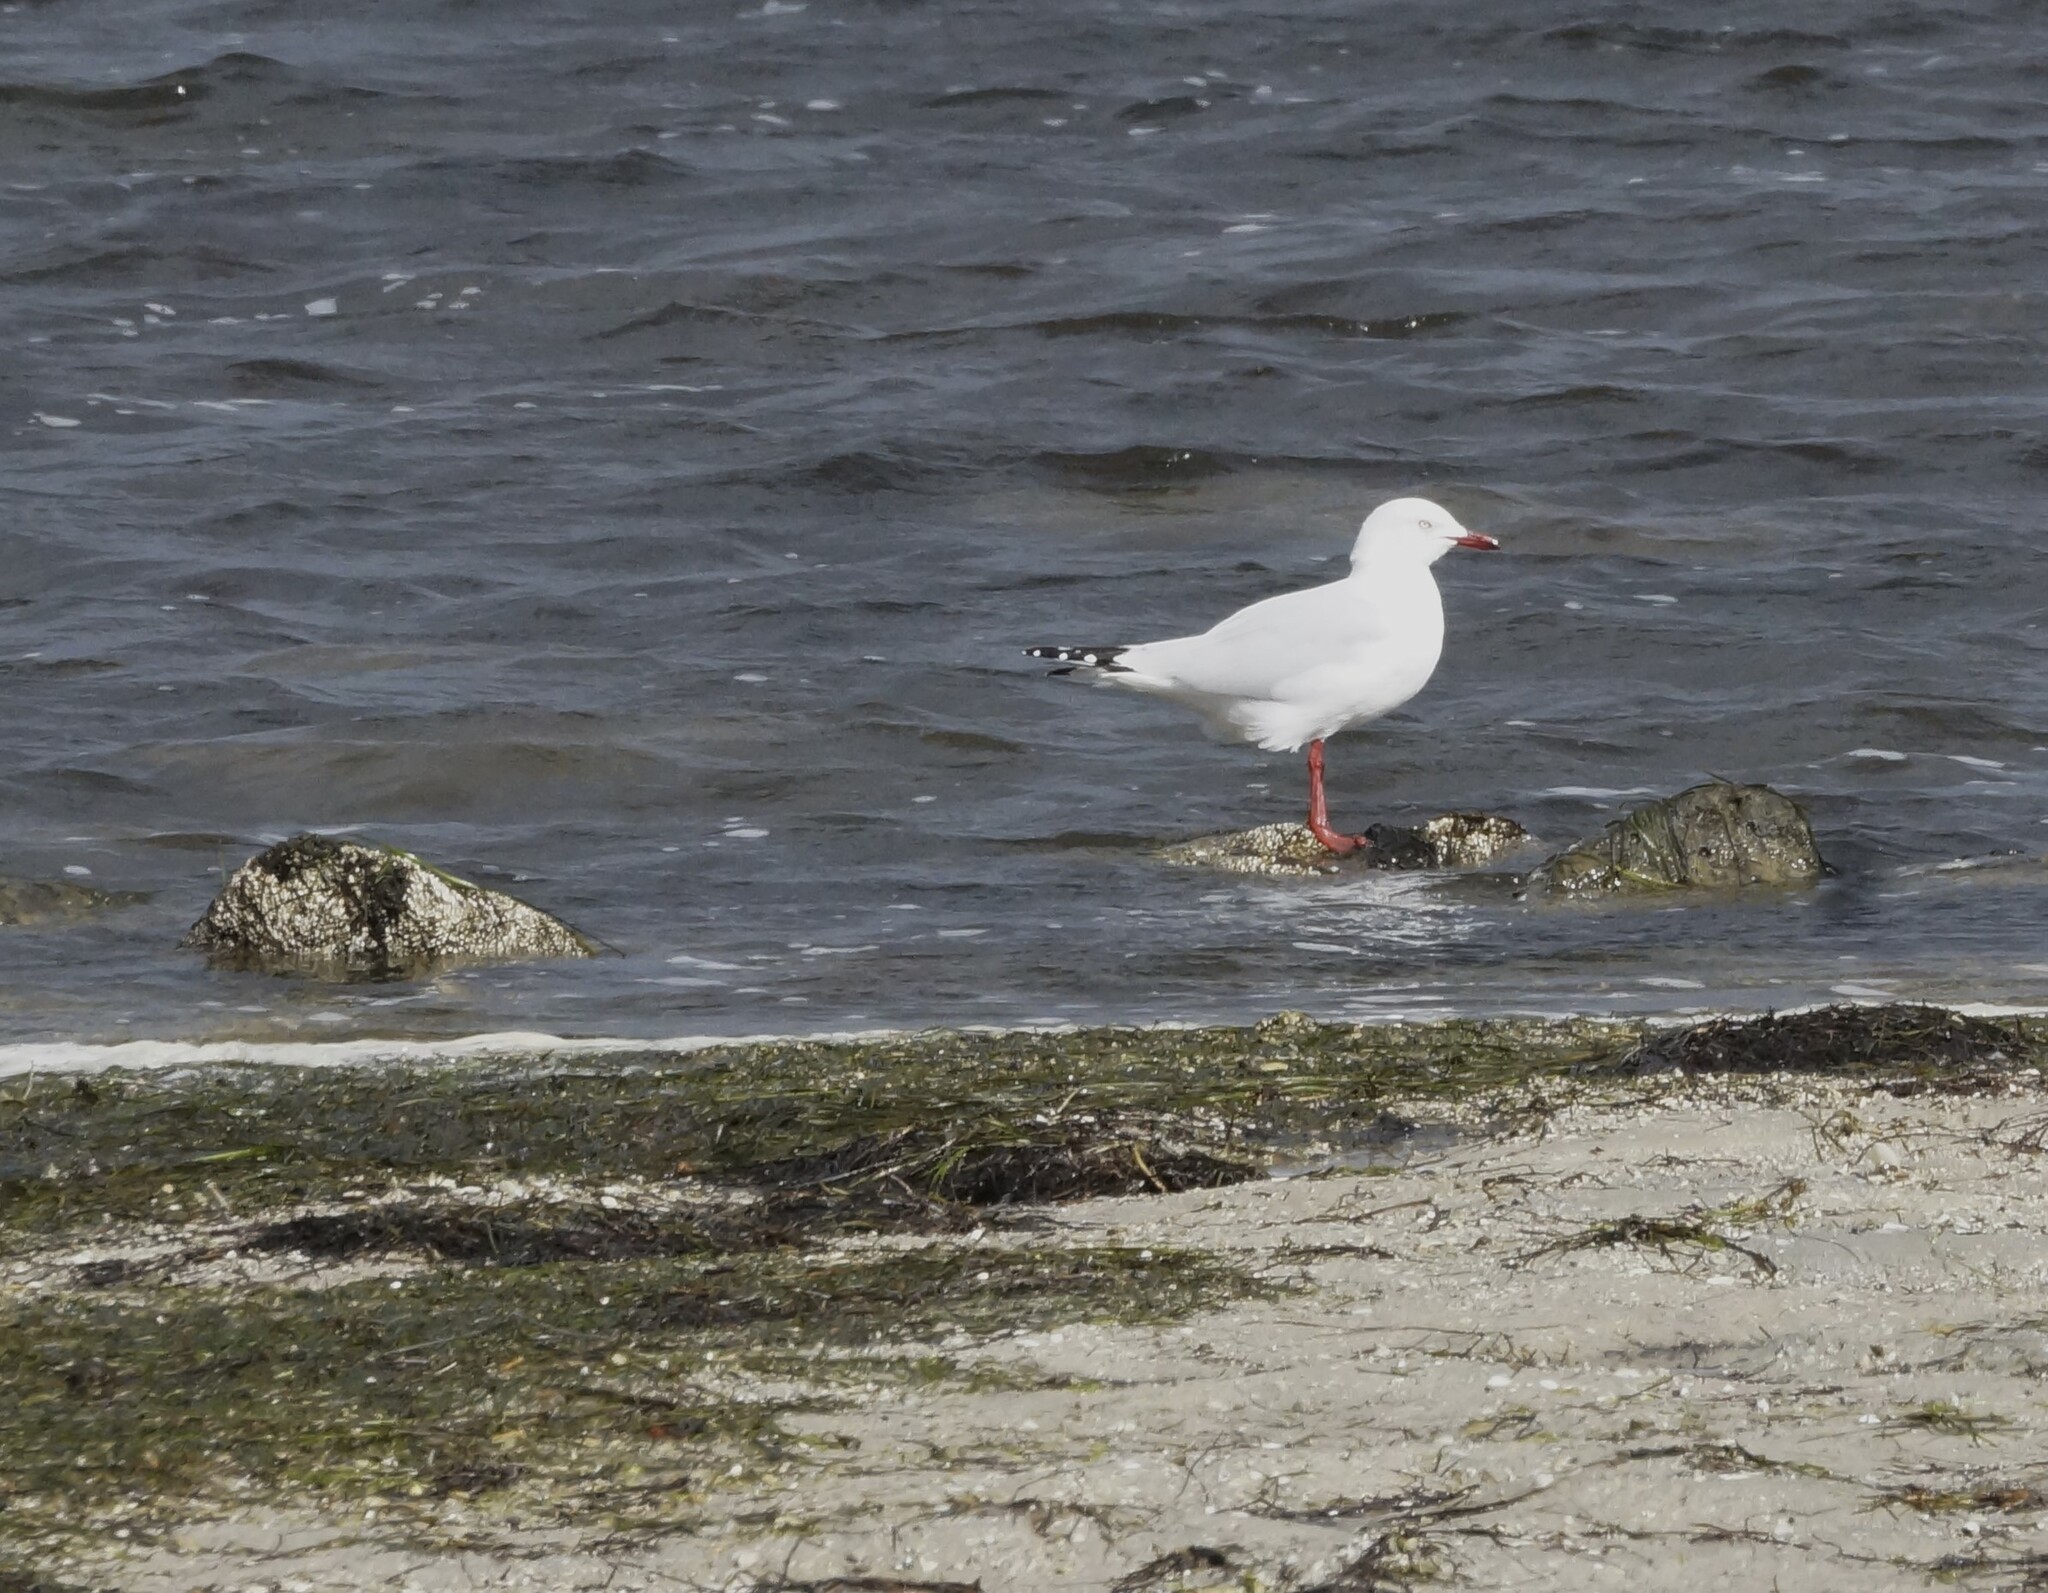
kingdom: Animalia
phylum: Chordata
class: Aves
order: Charadriiformes
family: Laridae
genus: Chroicocephalus
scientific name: Chroicocephalus novaehollandiae
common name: Silver gull
